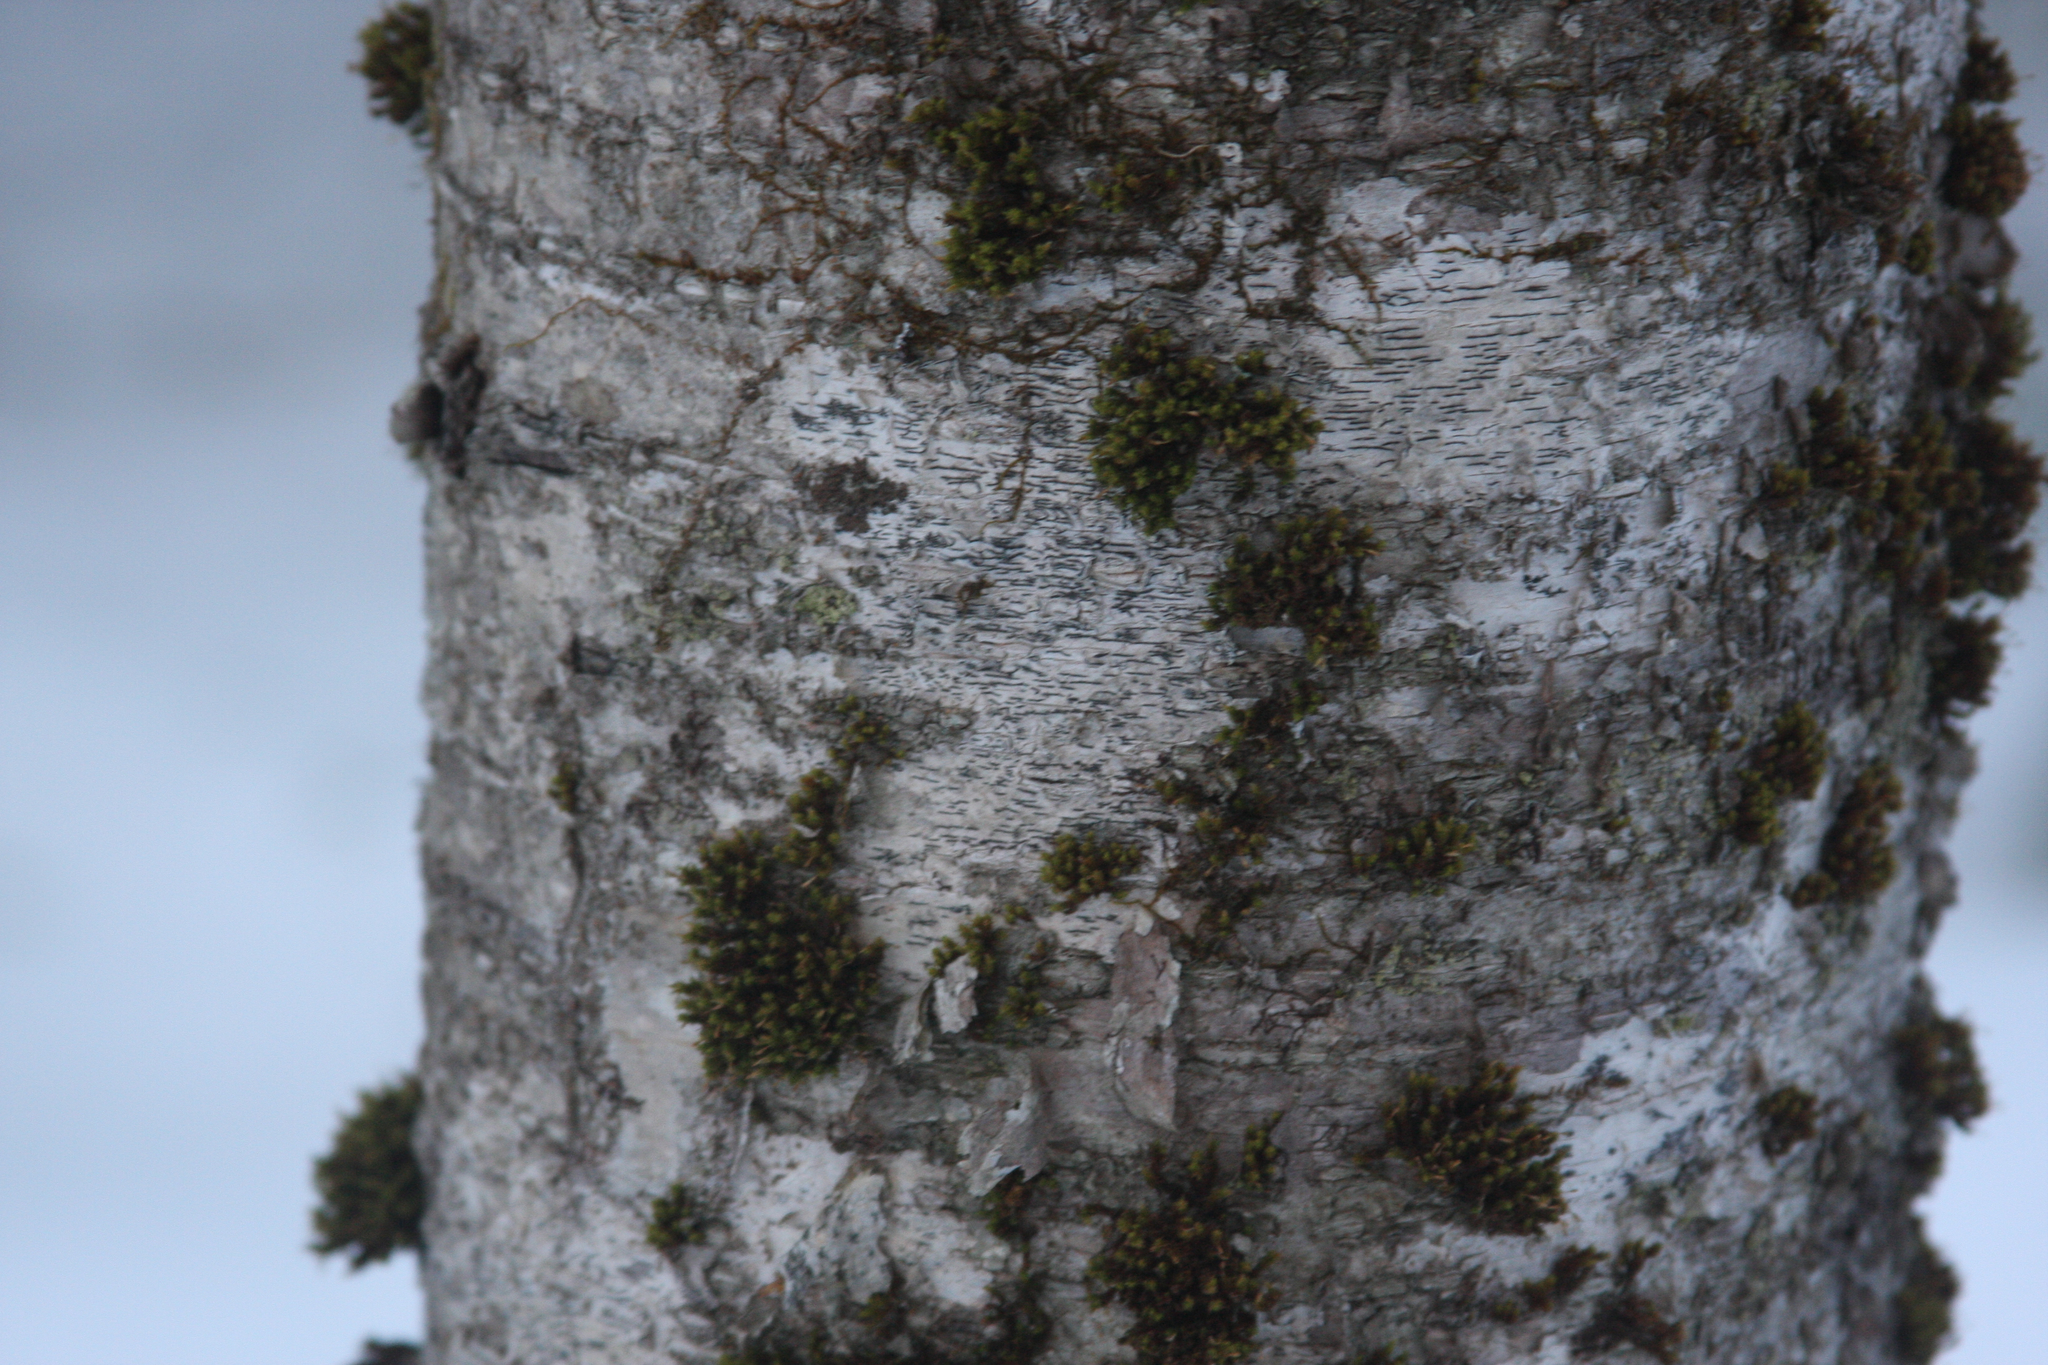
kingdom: Plantae
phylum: Bryophyta
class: Bryopsida
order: Orthotrichales
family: Orthotrichaceae
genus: Ulota
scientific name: Ulota crispa
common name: Crisped pincushion moss
